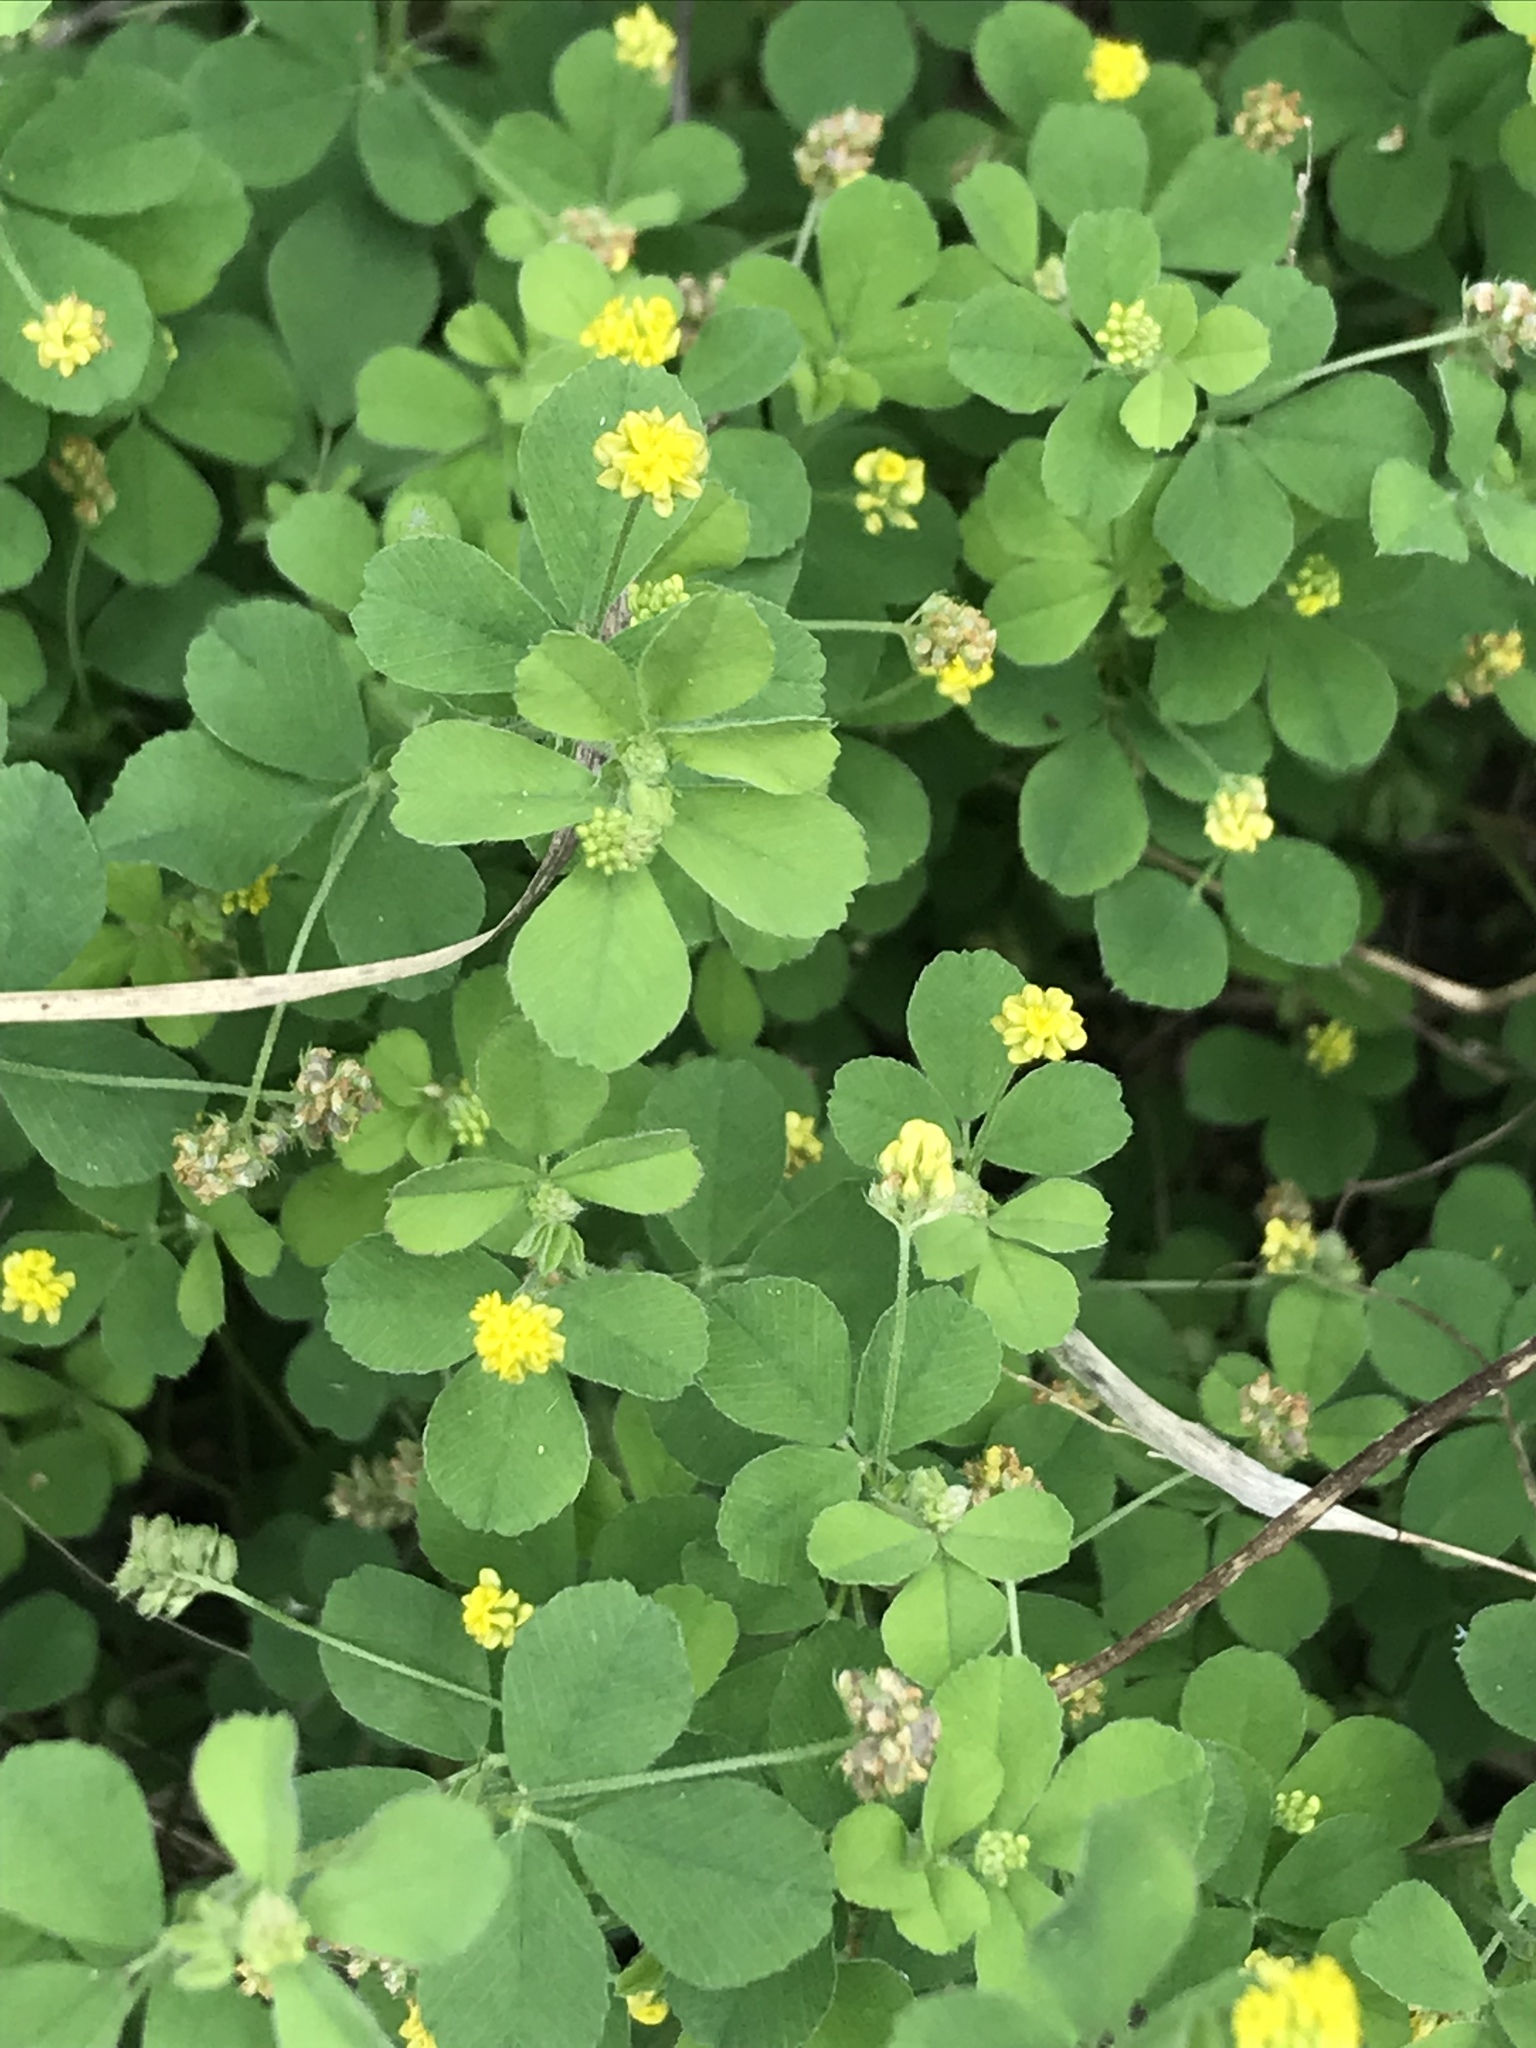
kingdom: Plantae
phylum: Tracheophyta
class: Magnoliopsida
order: Fabales
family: Fabaceae
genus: Medicago
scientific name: Medicago lupulina
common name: Black medick
